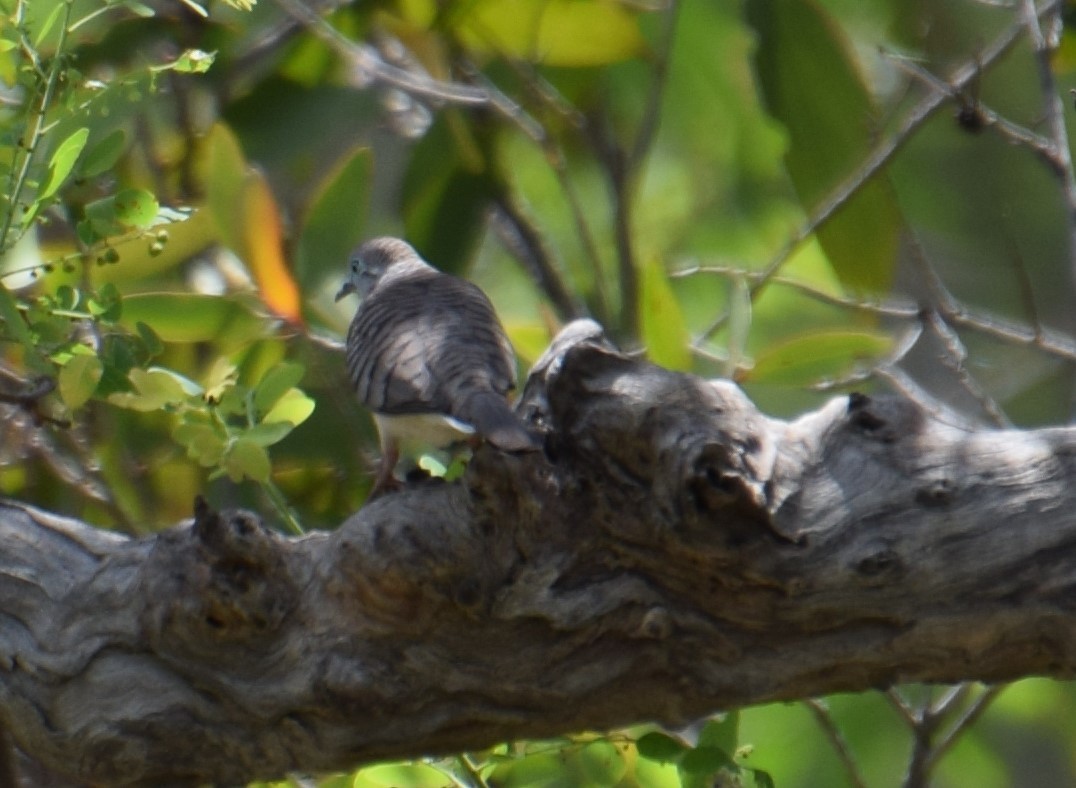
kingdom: Animalia
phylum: Chordata
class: Aves
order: Columbiformes
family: Columbidae
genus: Geopelia
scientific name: Geopelia placida
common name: Peaceful dove
